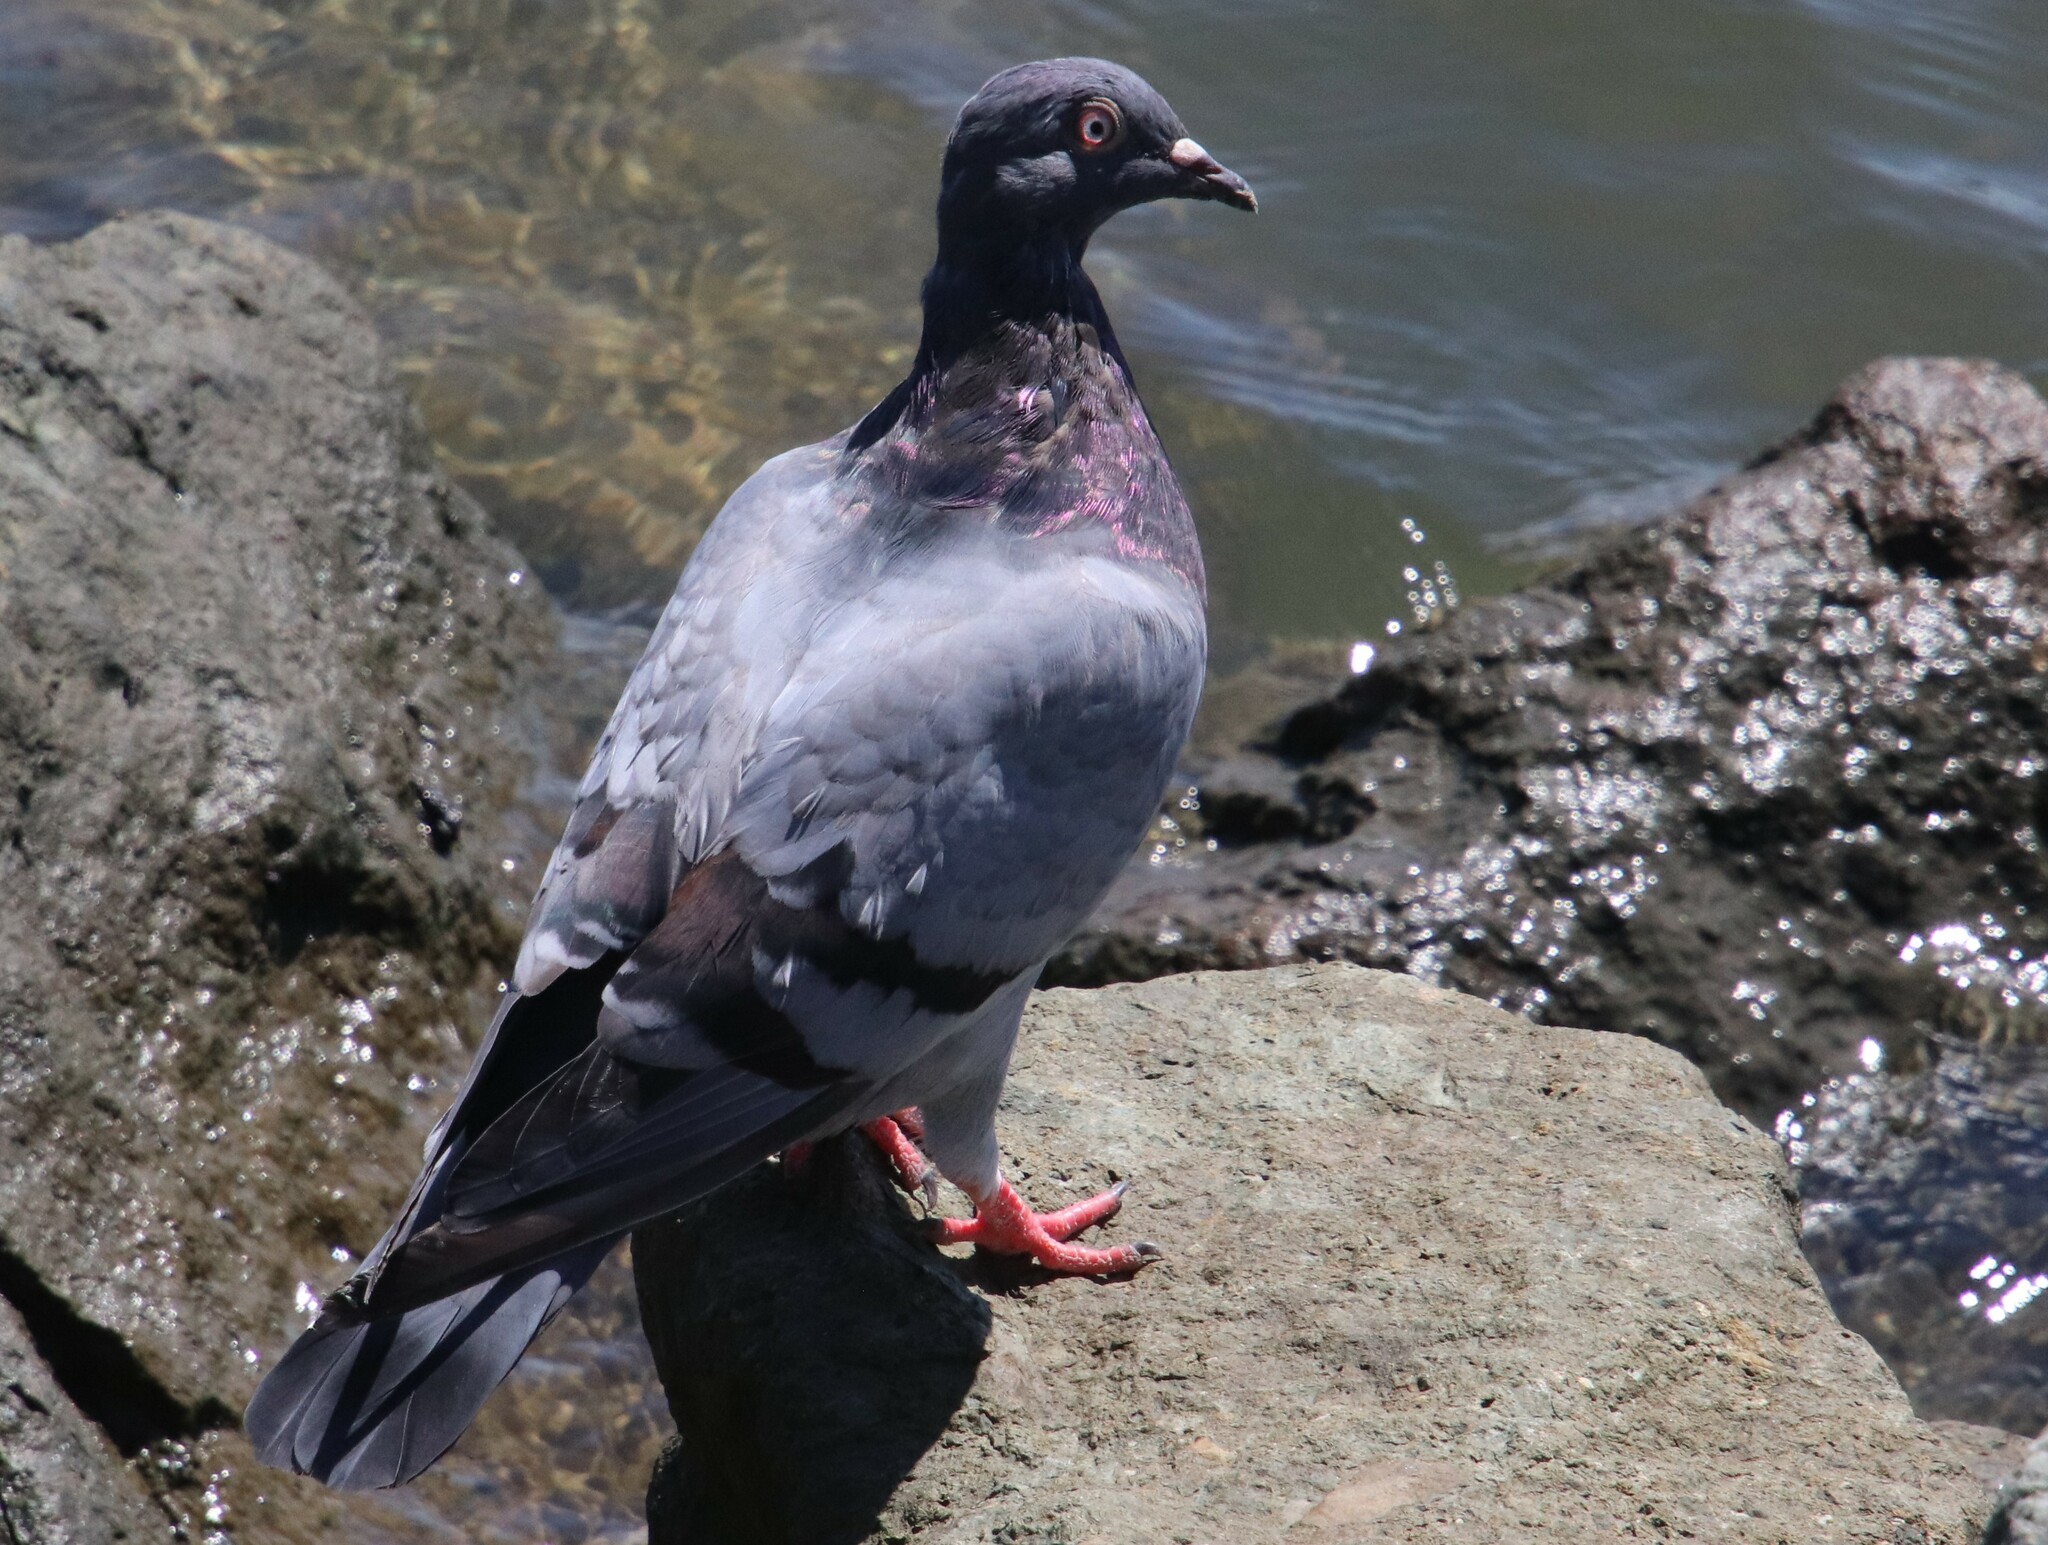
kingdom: Animalia
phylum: Chordata
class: Aves
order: Columbiformes
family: Columbidae
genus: Columba
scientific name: Columba livia
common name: Rock pigeon
